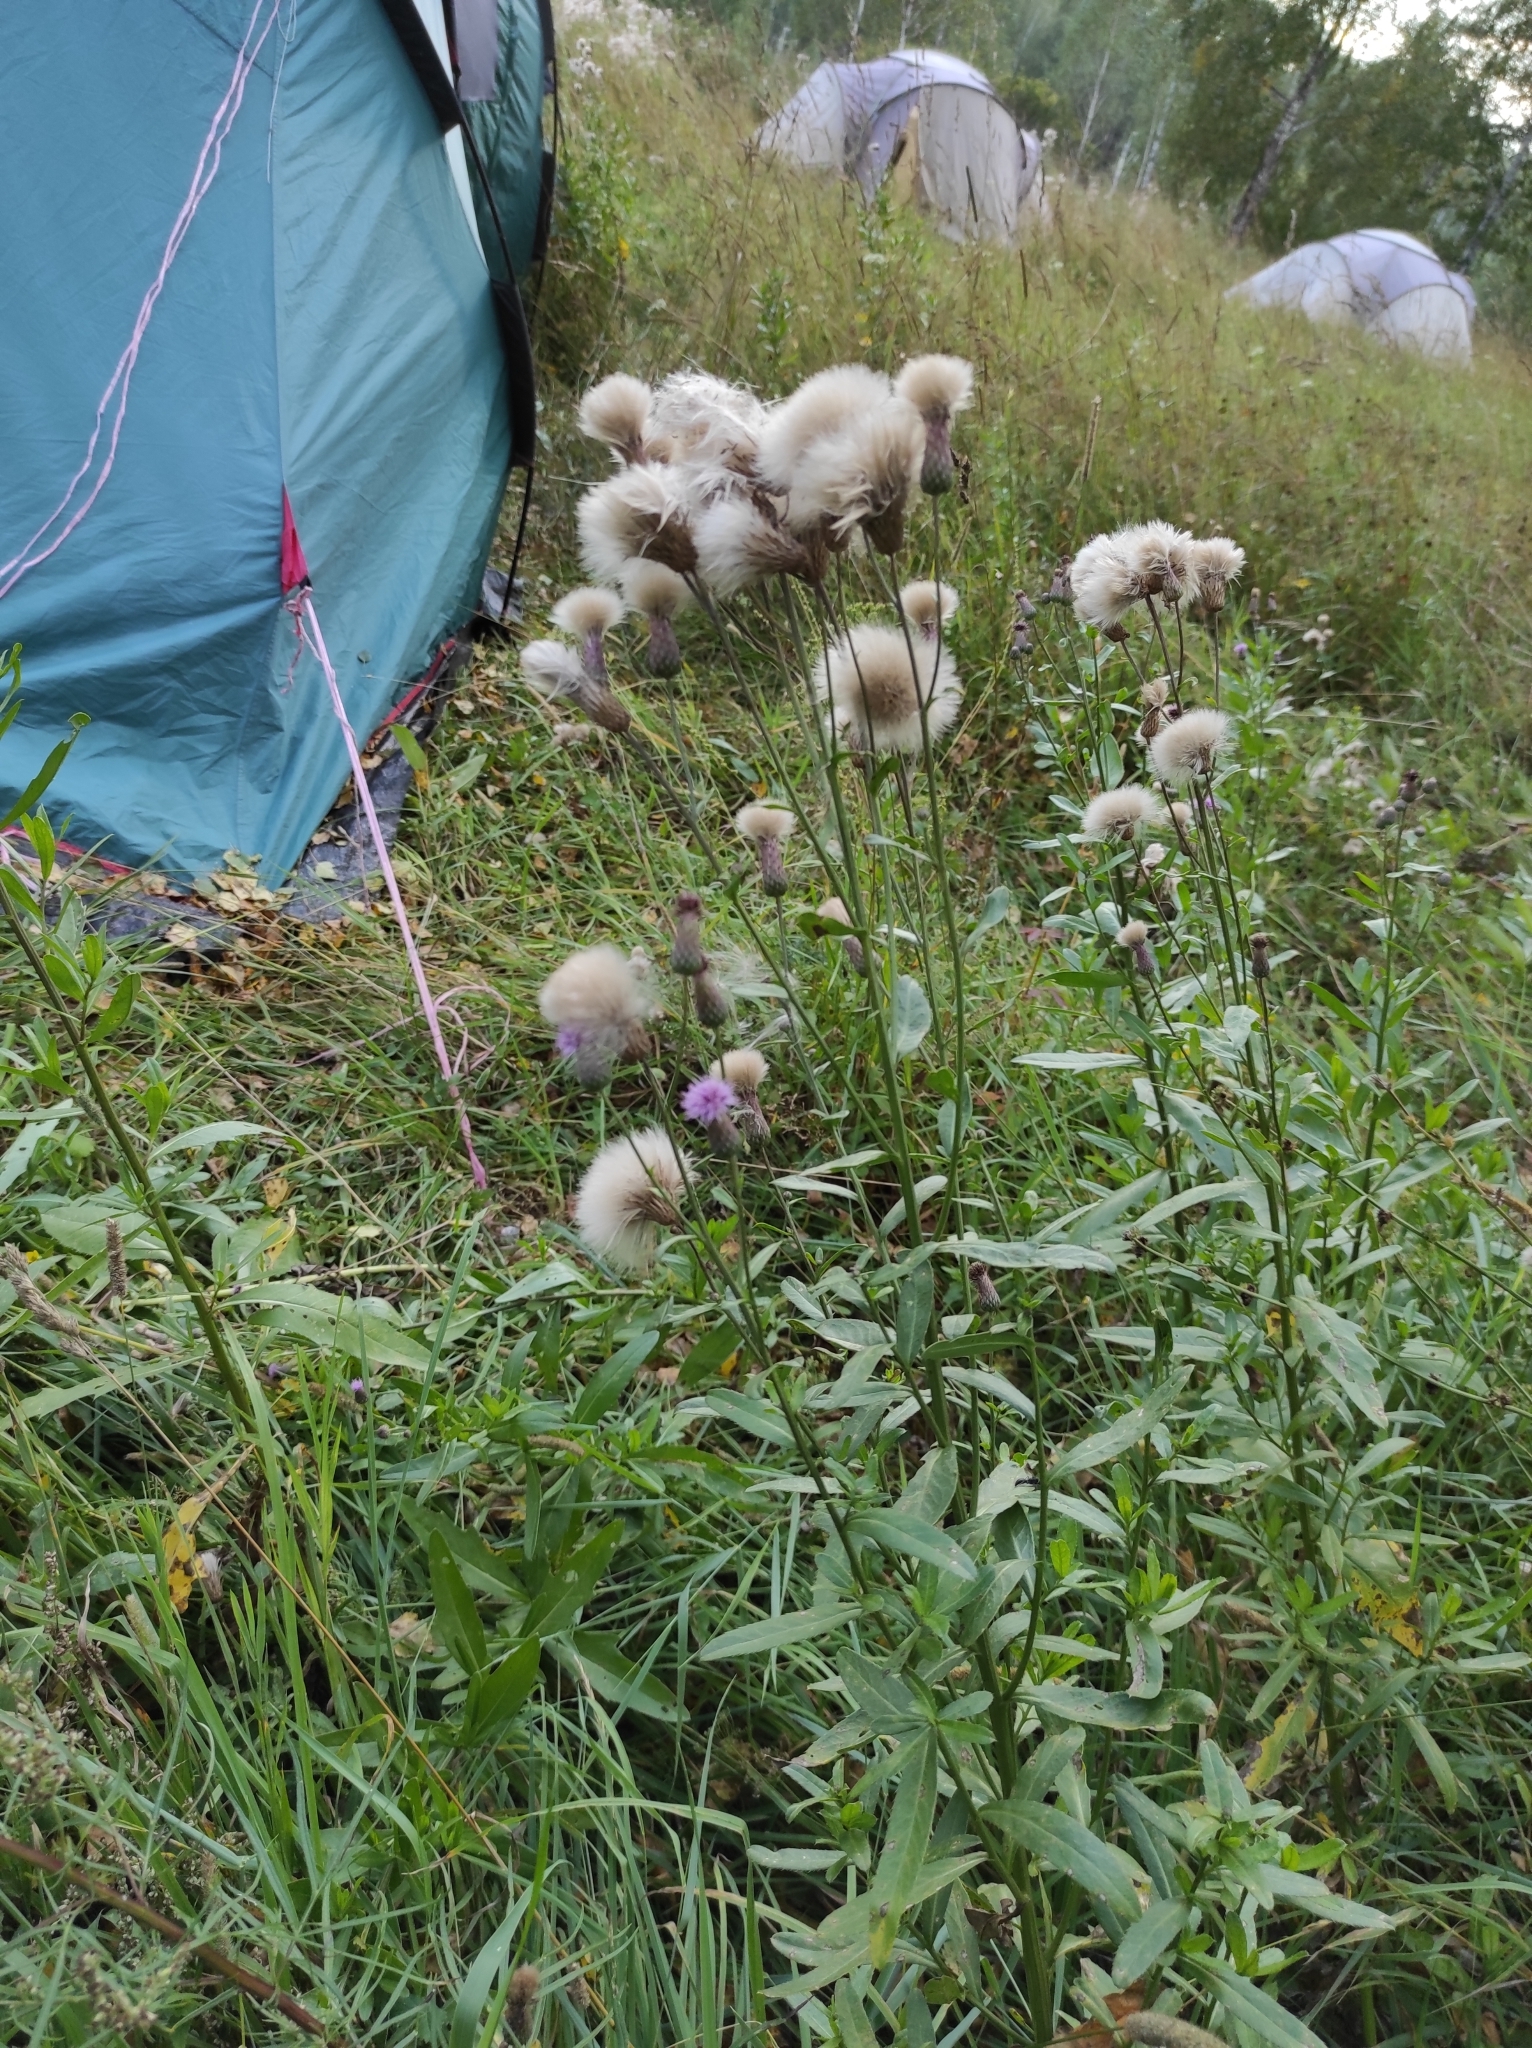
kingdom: Plantae
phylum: Tracheophyta
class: Magnoliopsida
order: Asterales
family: Asteraceae
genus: Cirsium
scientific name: Cirsium arvense
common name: Creeping thistle
